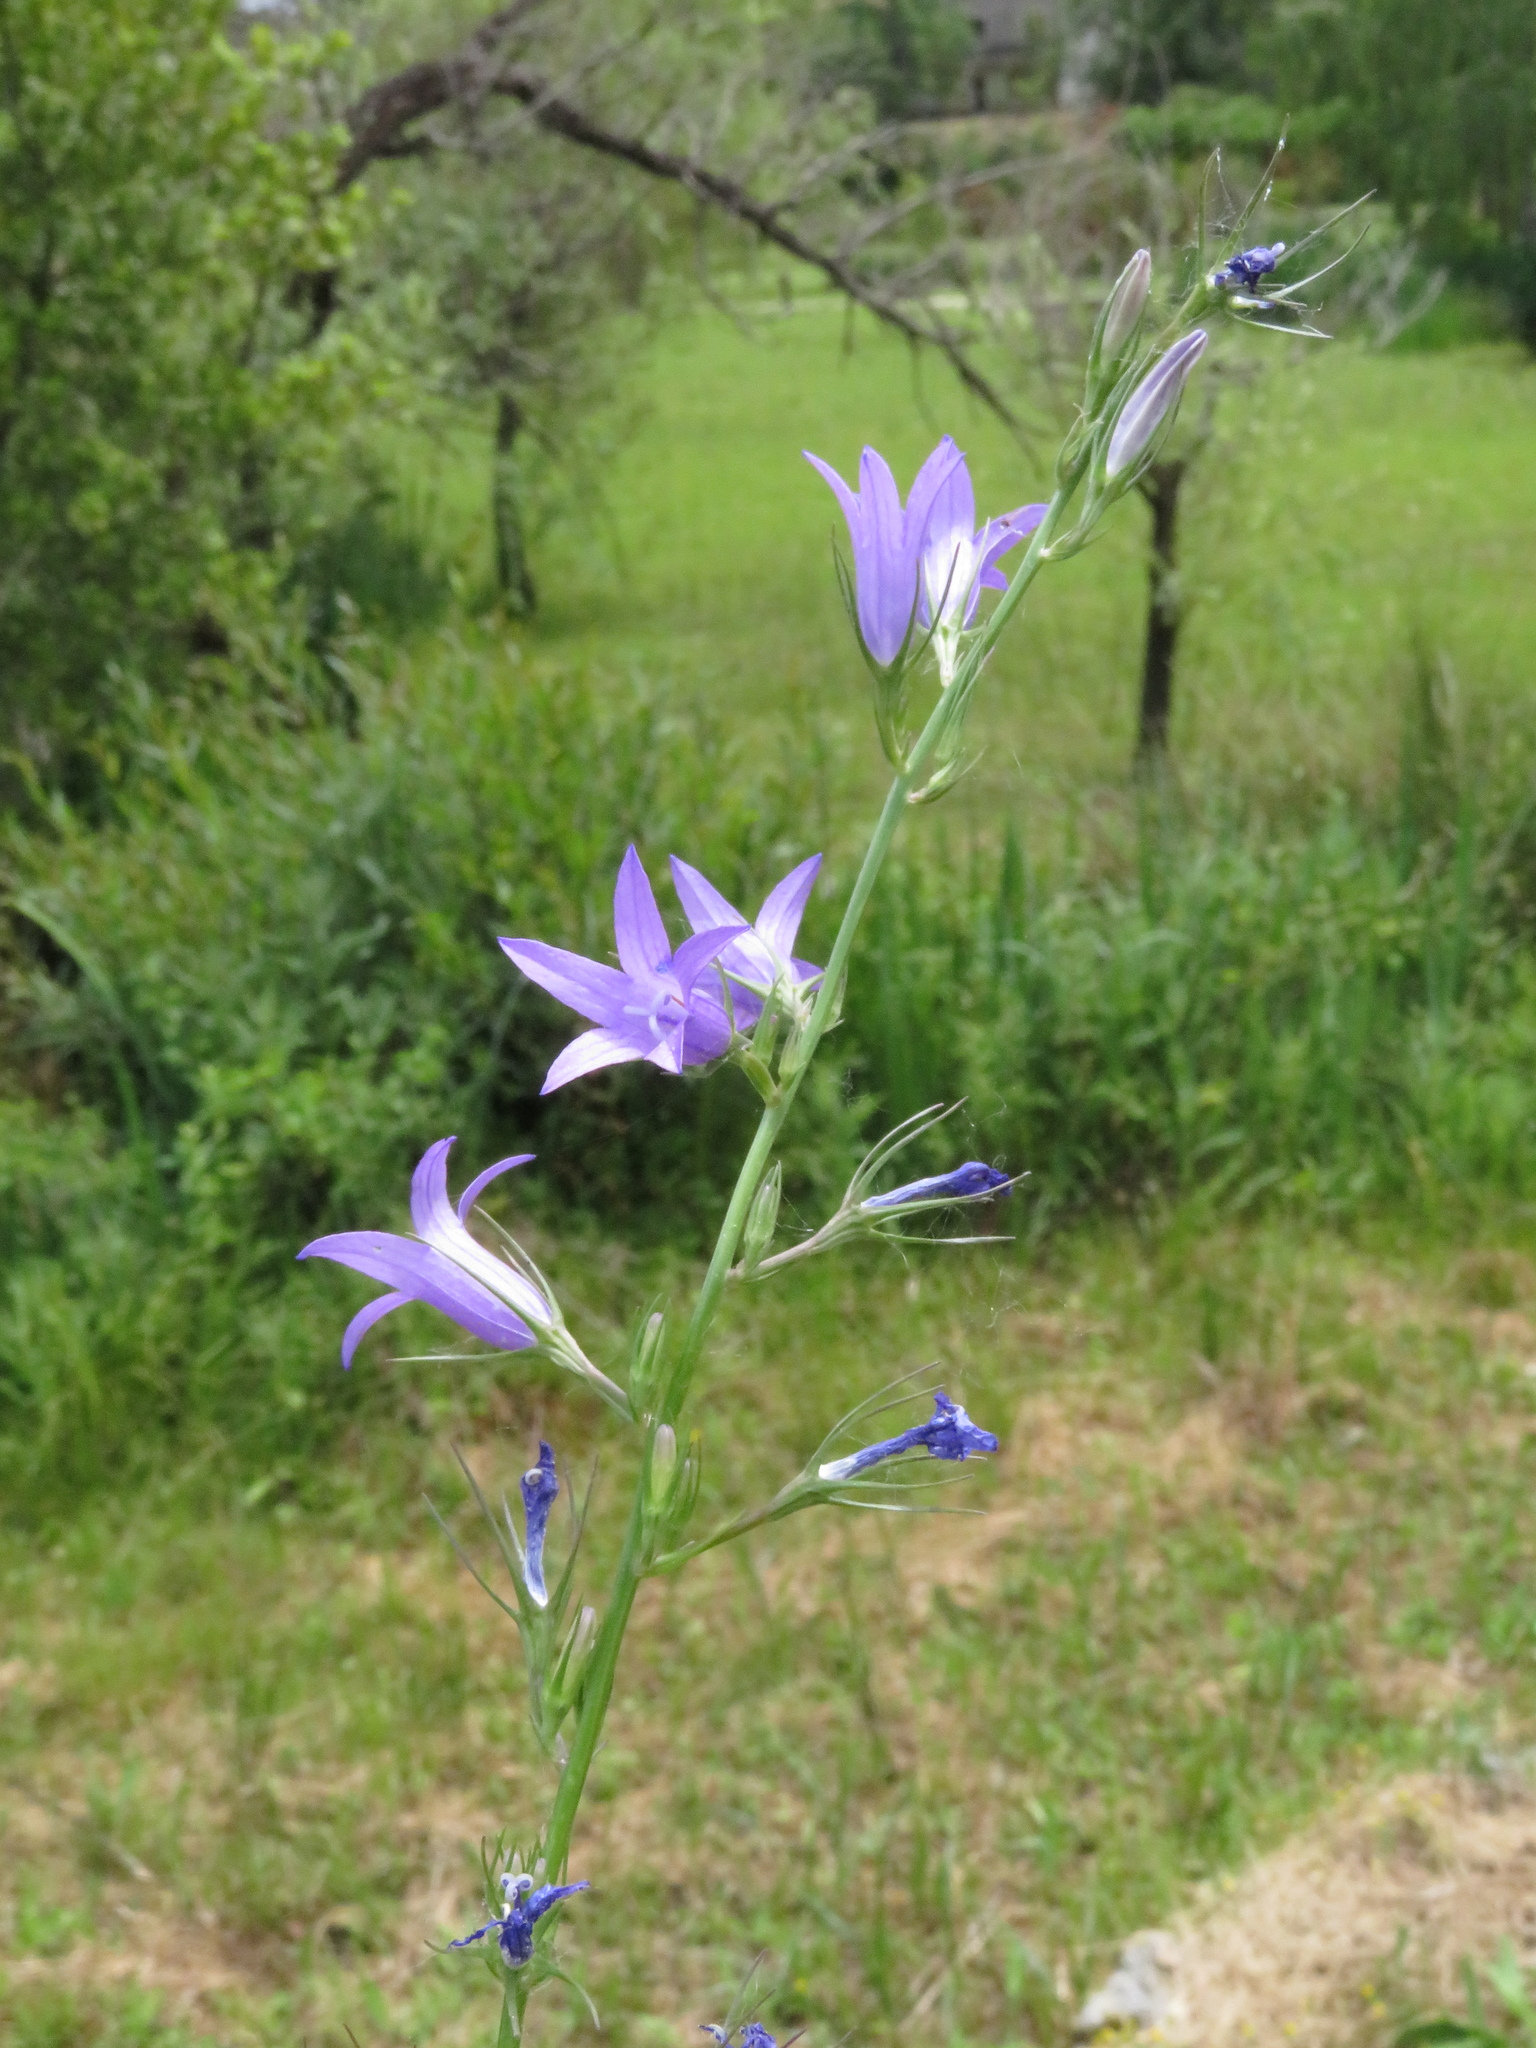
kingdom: Plantae
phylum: Tracheophyta
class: Magnoliopsida
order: Asterales
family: Campanulaceae
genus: Campanula
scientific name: Campanula rapunculus
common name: Rampion bellflower
